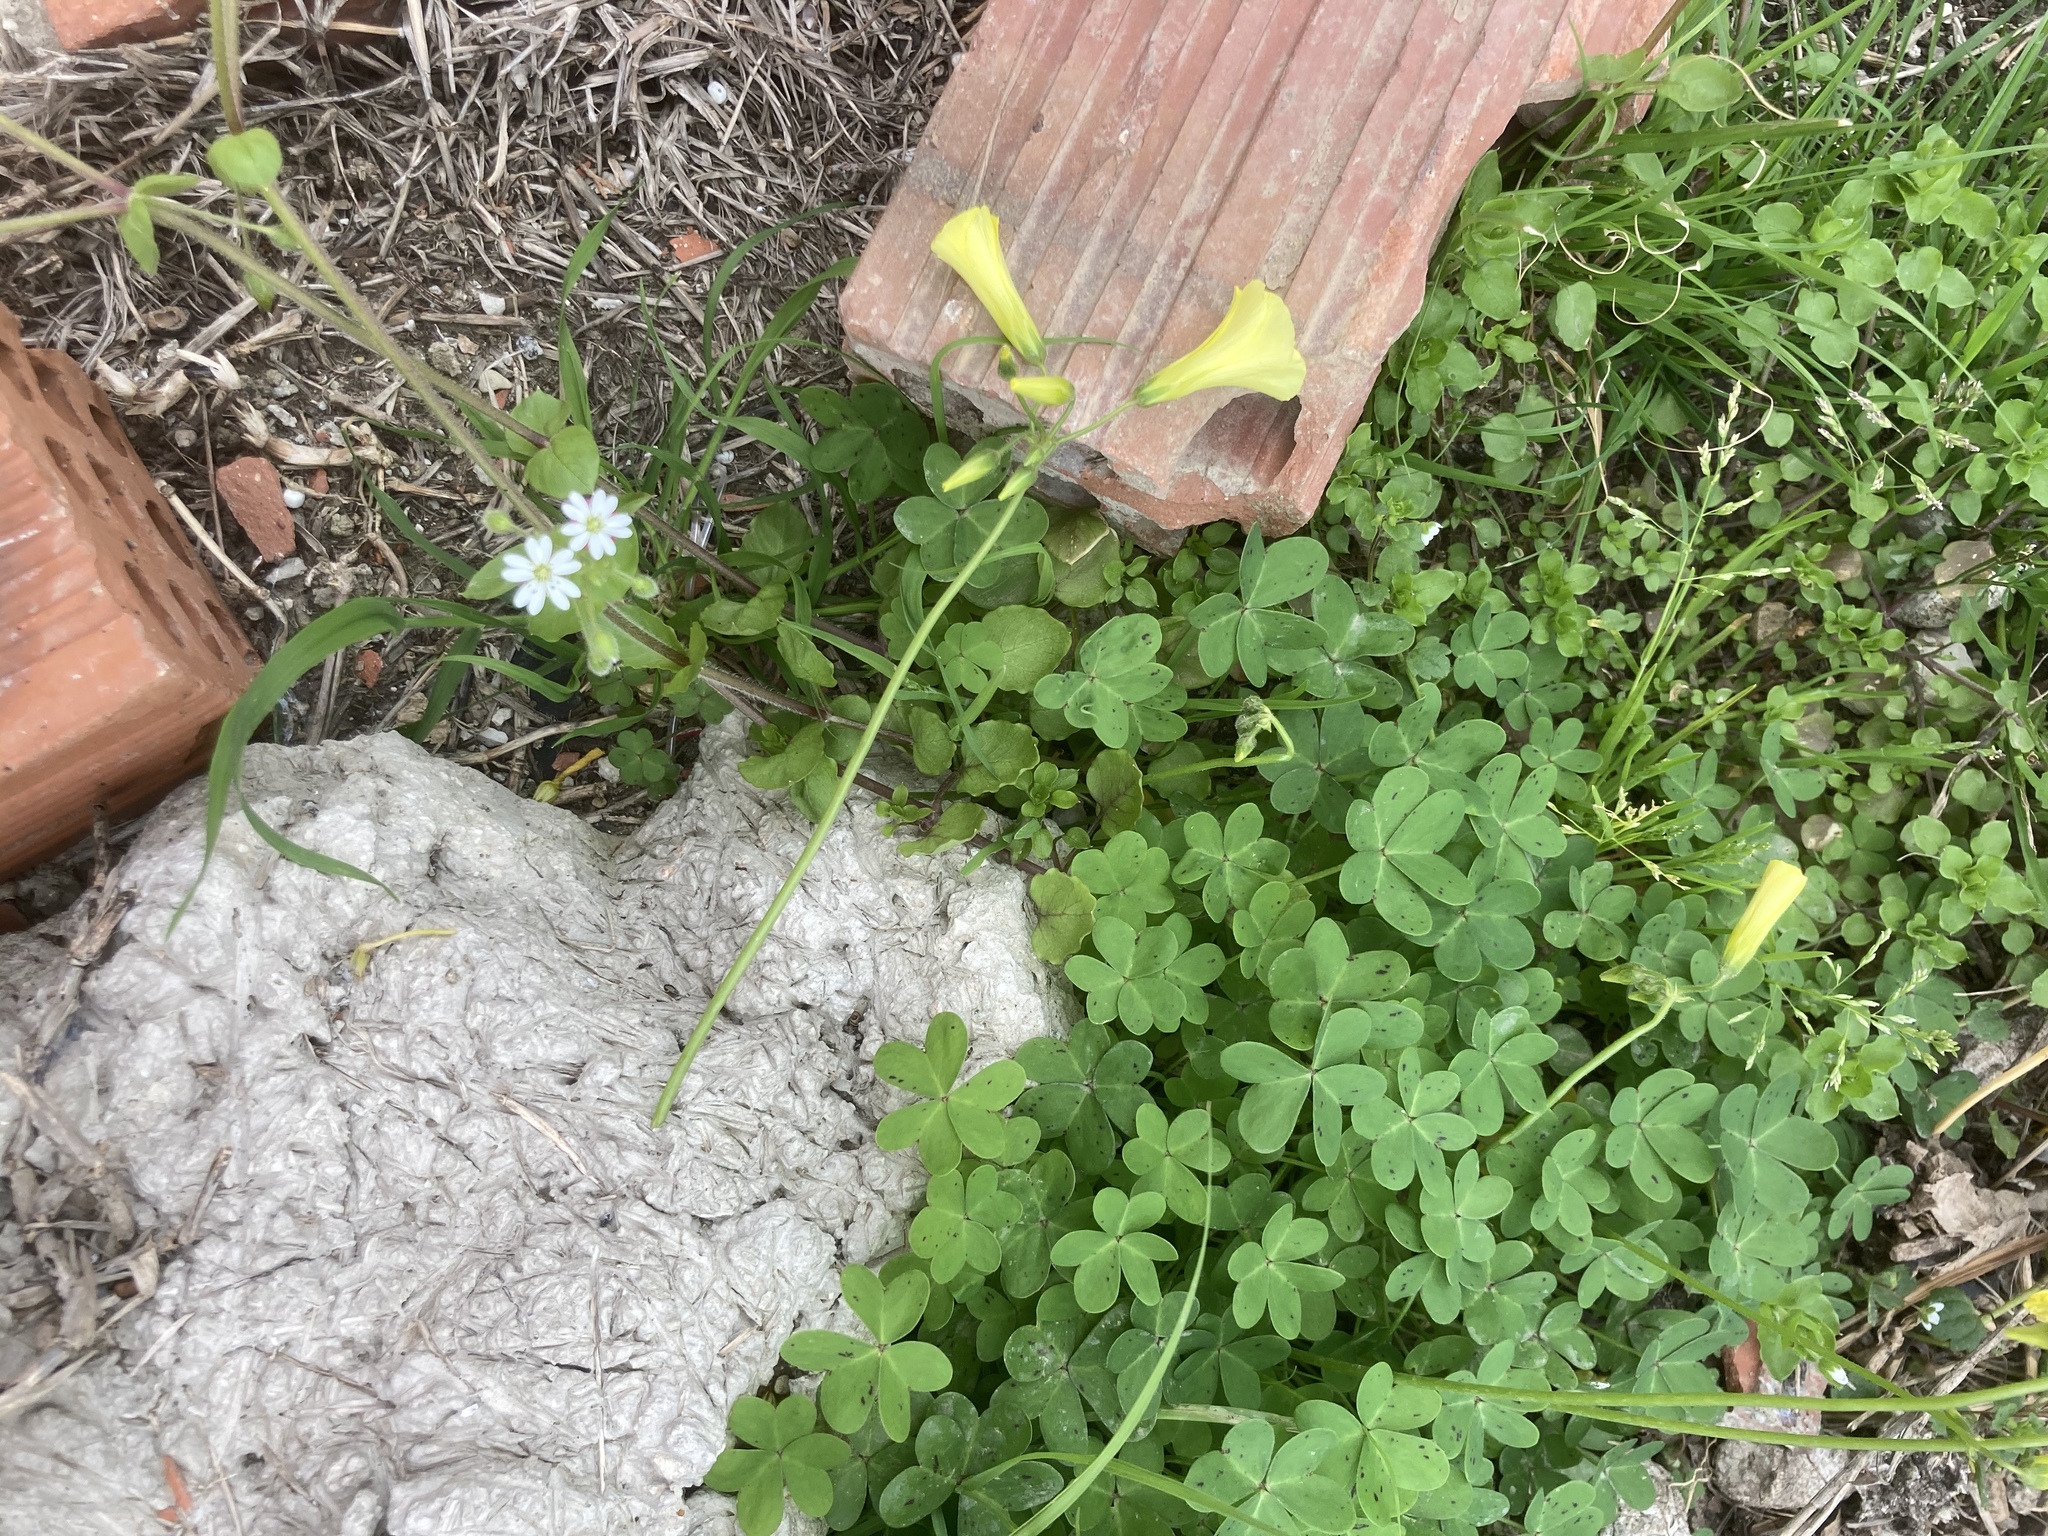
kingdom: Plantae
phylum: Tracheophyta
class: Magnoliopsida
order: Oxalidales
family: Oxalidaceae
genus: Oxalis
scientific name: Oxalis pes-caprae
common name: Bermuda-buttercup
